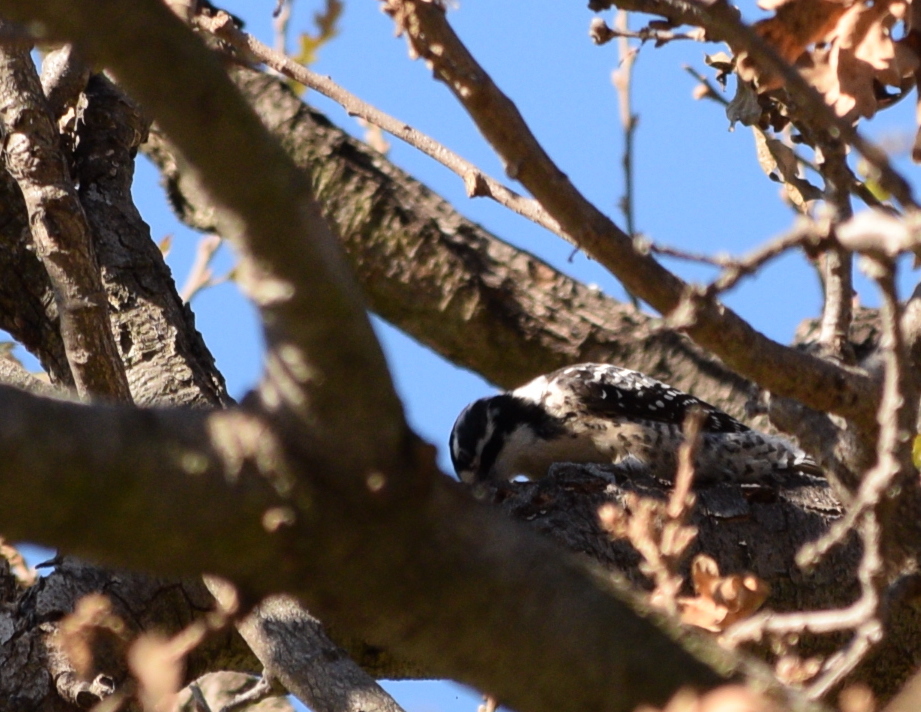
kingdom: Animalia
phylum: Chordata
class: Aves
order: Piciformes
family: Picidae
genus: Dryobates
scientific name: Dryobates nuttallii
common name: Nuttall's woodpecker
